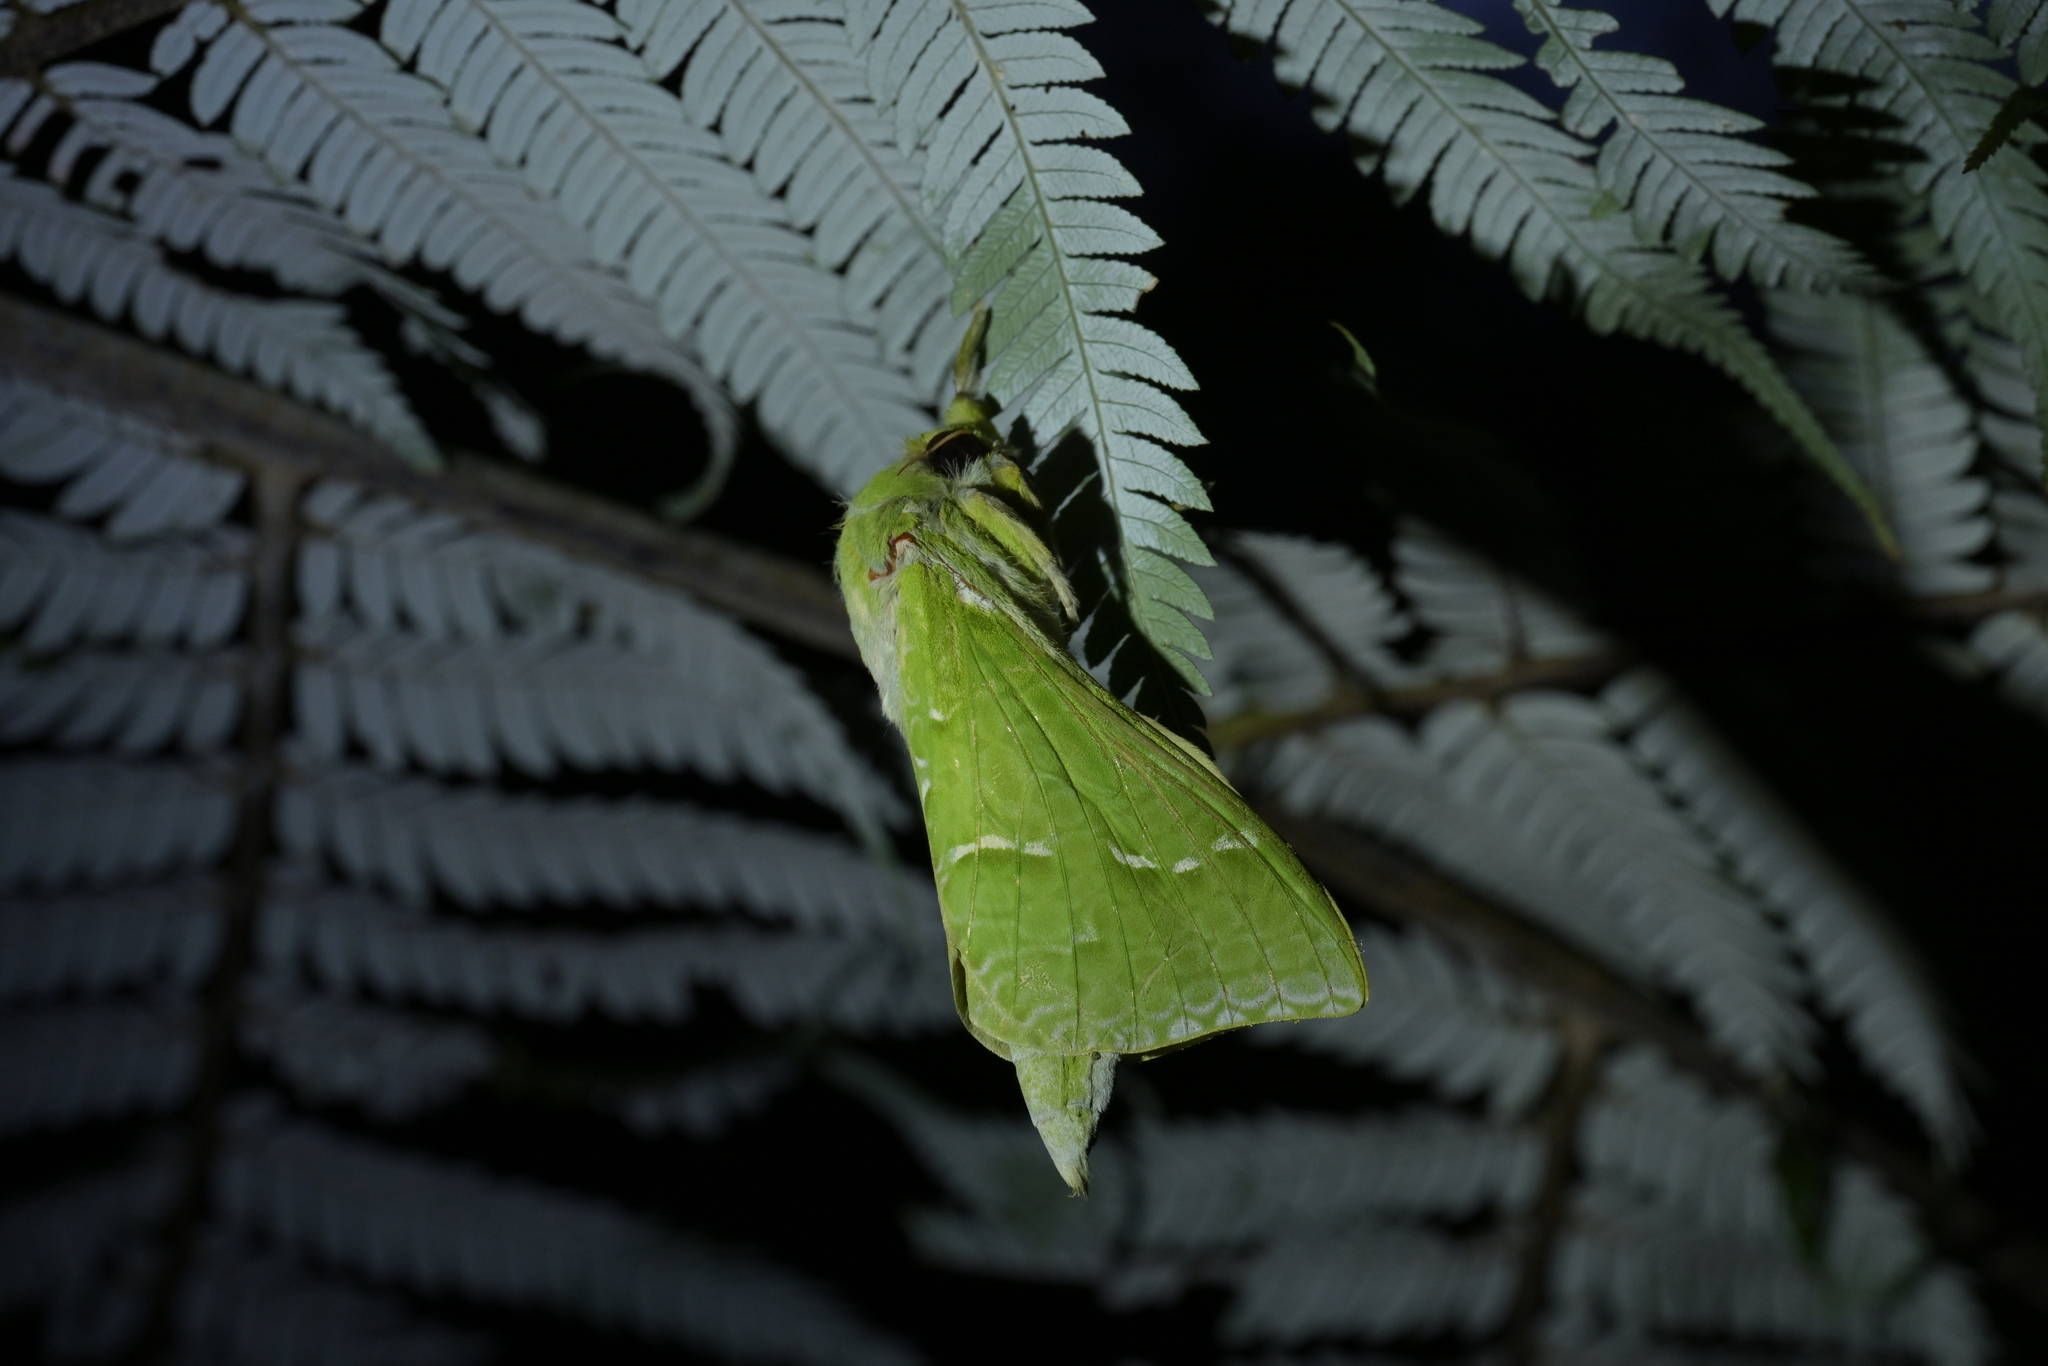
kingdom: Animalia
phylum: Arthropoda
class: Insecta
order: Lepidoptera
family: Hepialidae
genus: Aenetus
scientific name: Aenetus virescens
